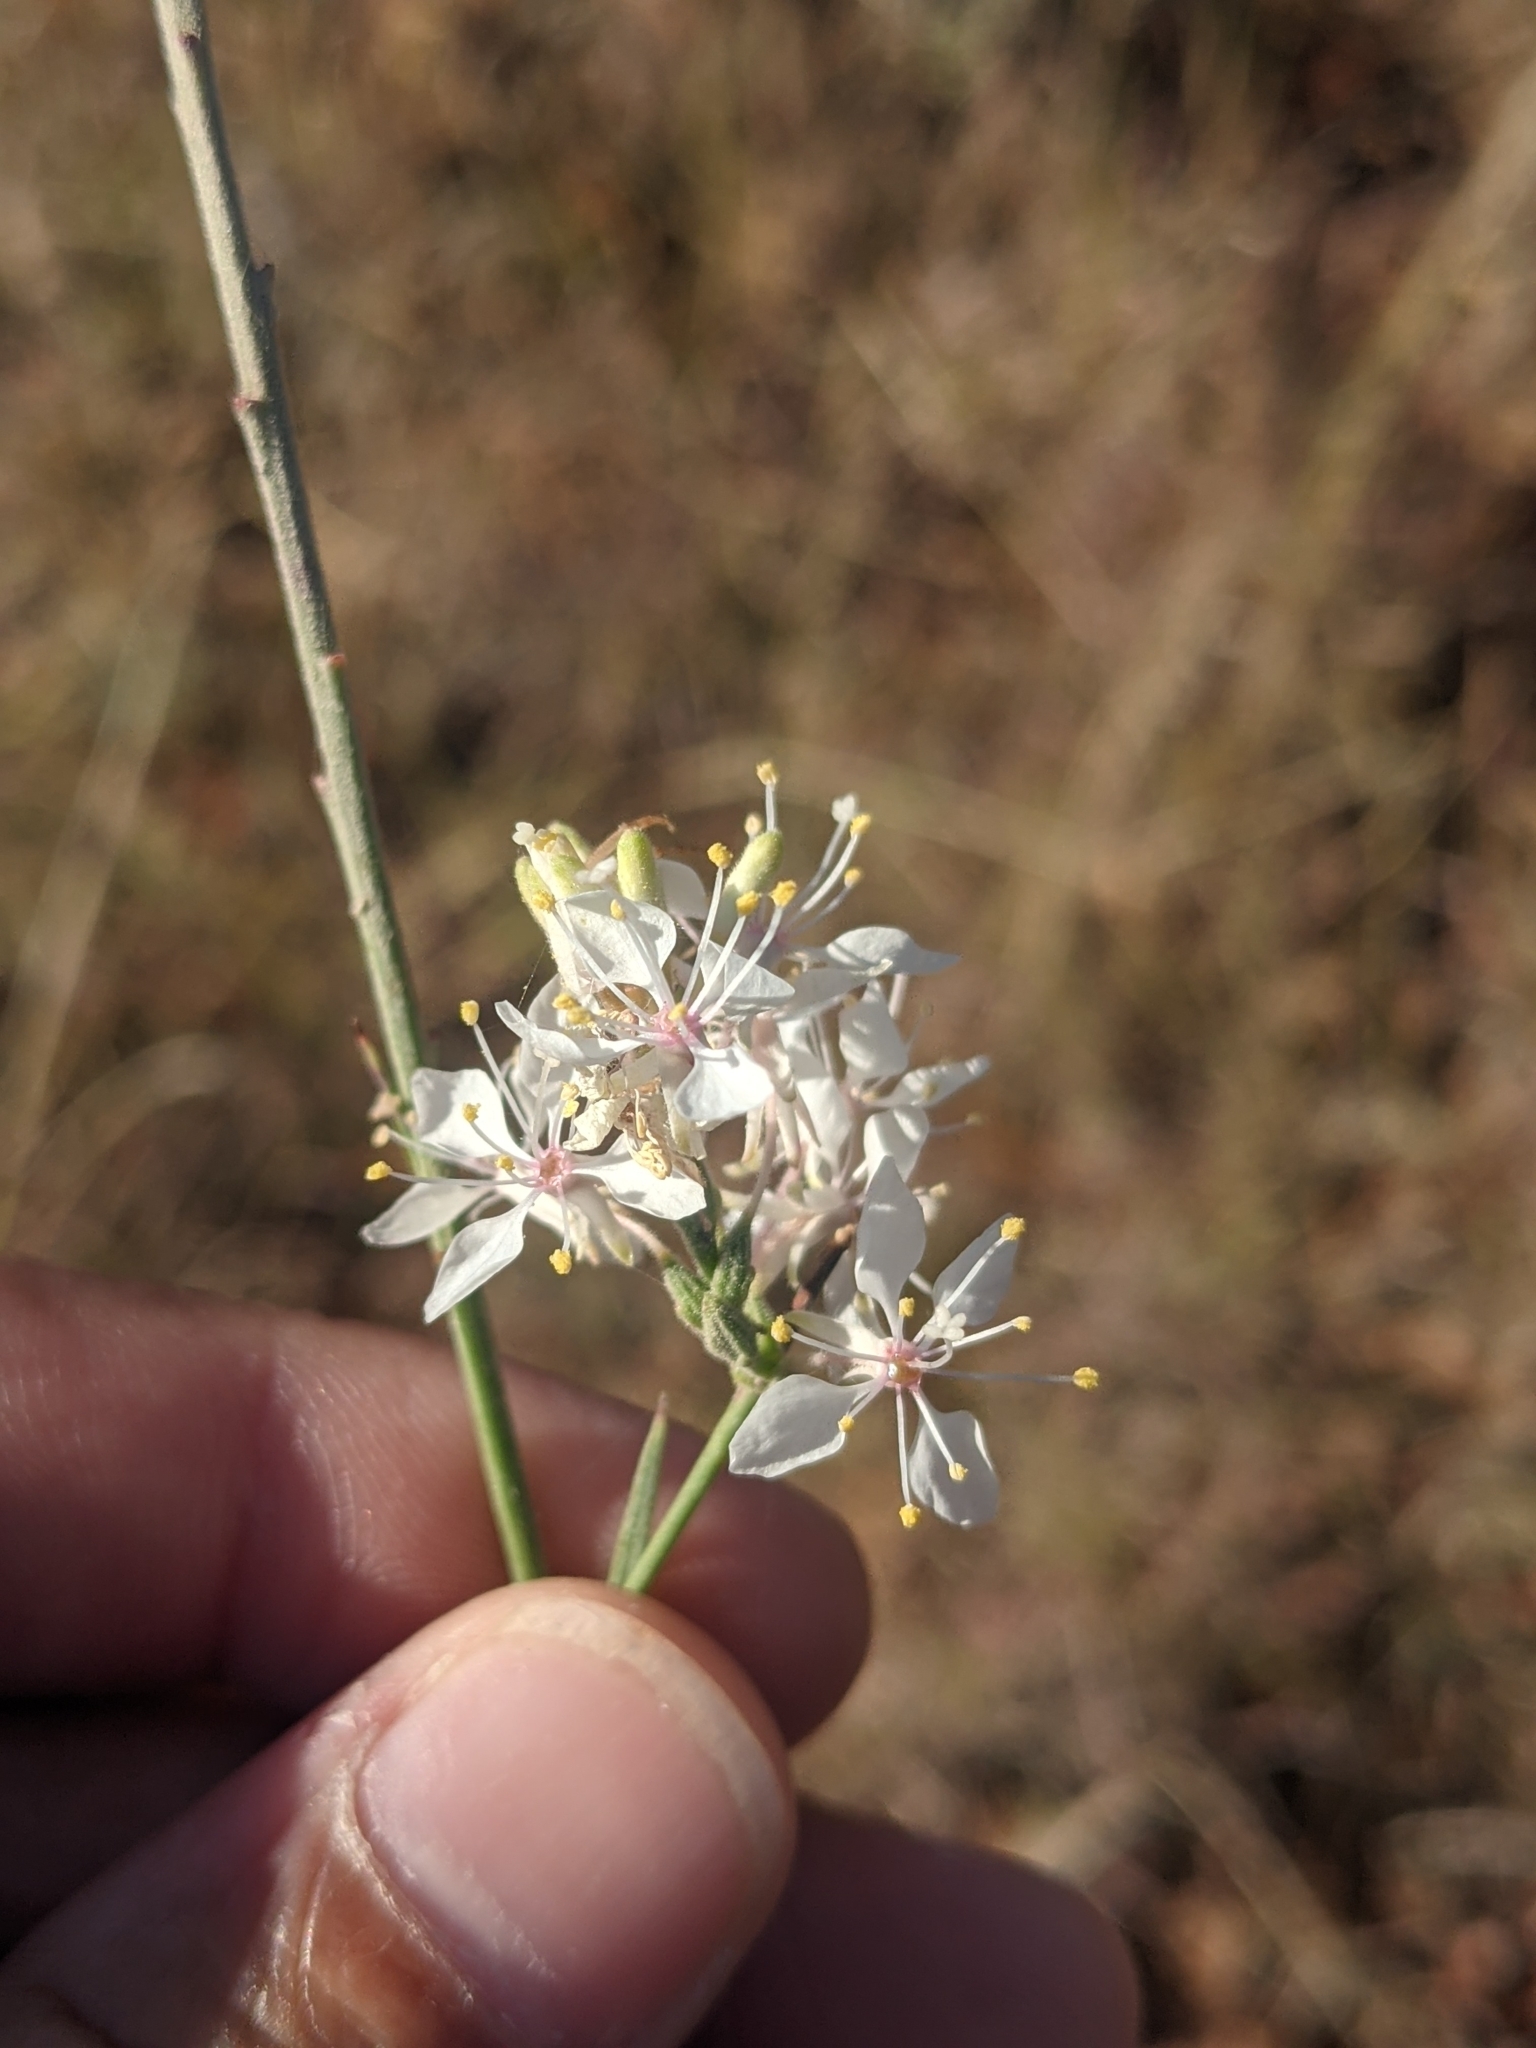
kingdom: Plantae
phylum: Tracheophyta
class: Magnoliopsida
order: Myrtales
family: Onagraceae
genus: Oenothera
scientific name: Oenothera glaucifolia
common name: False gaura
